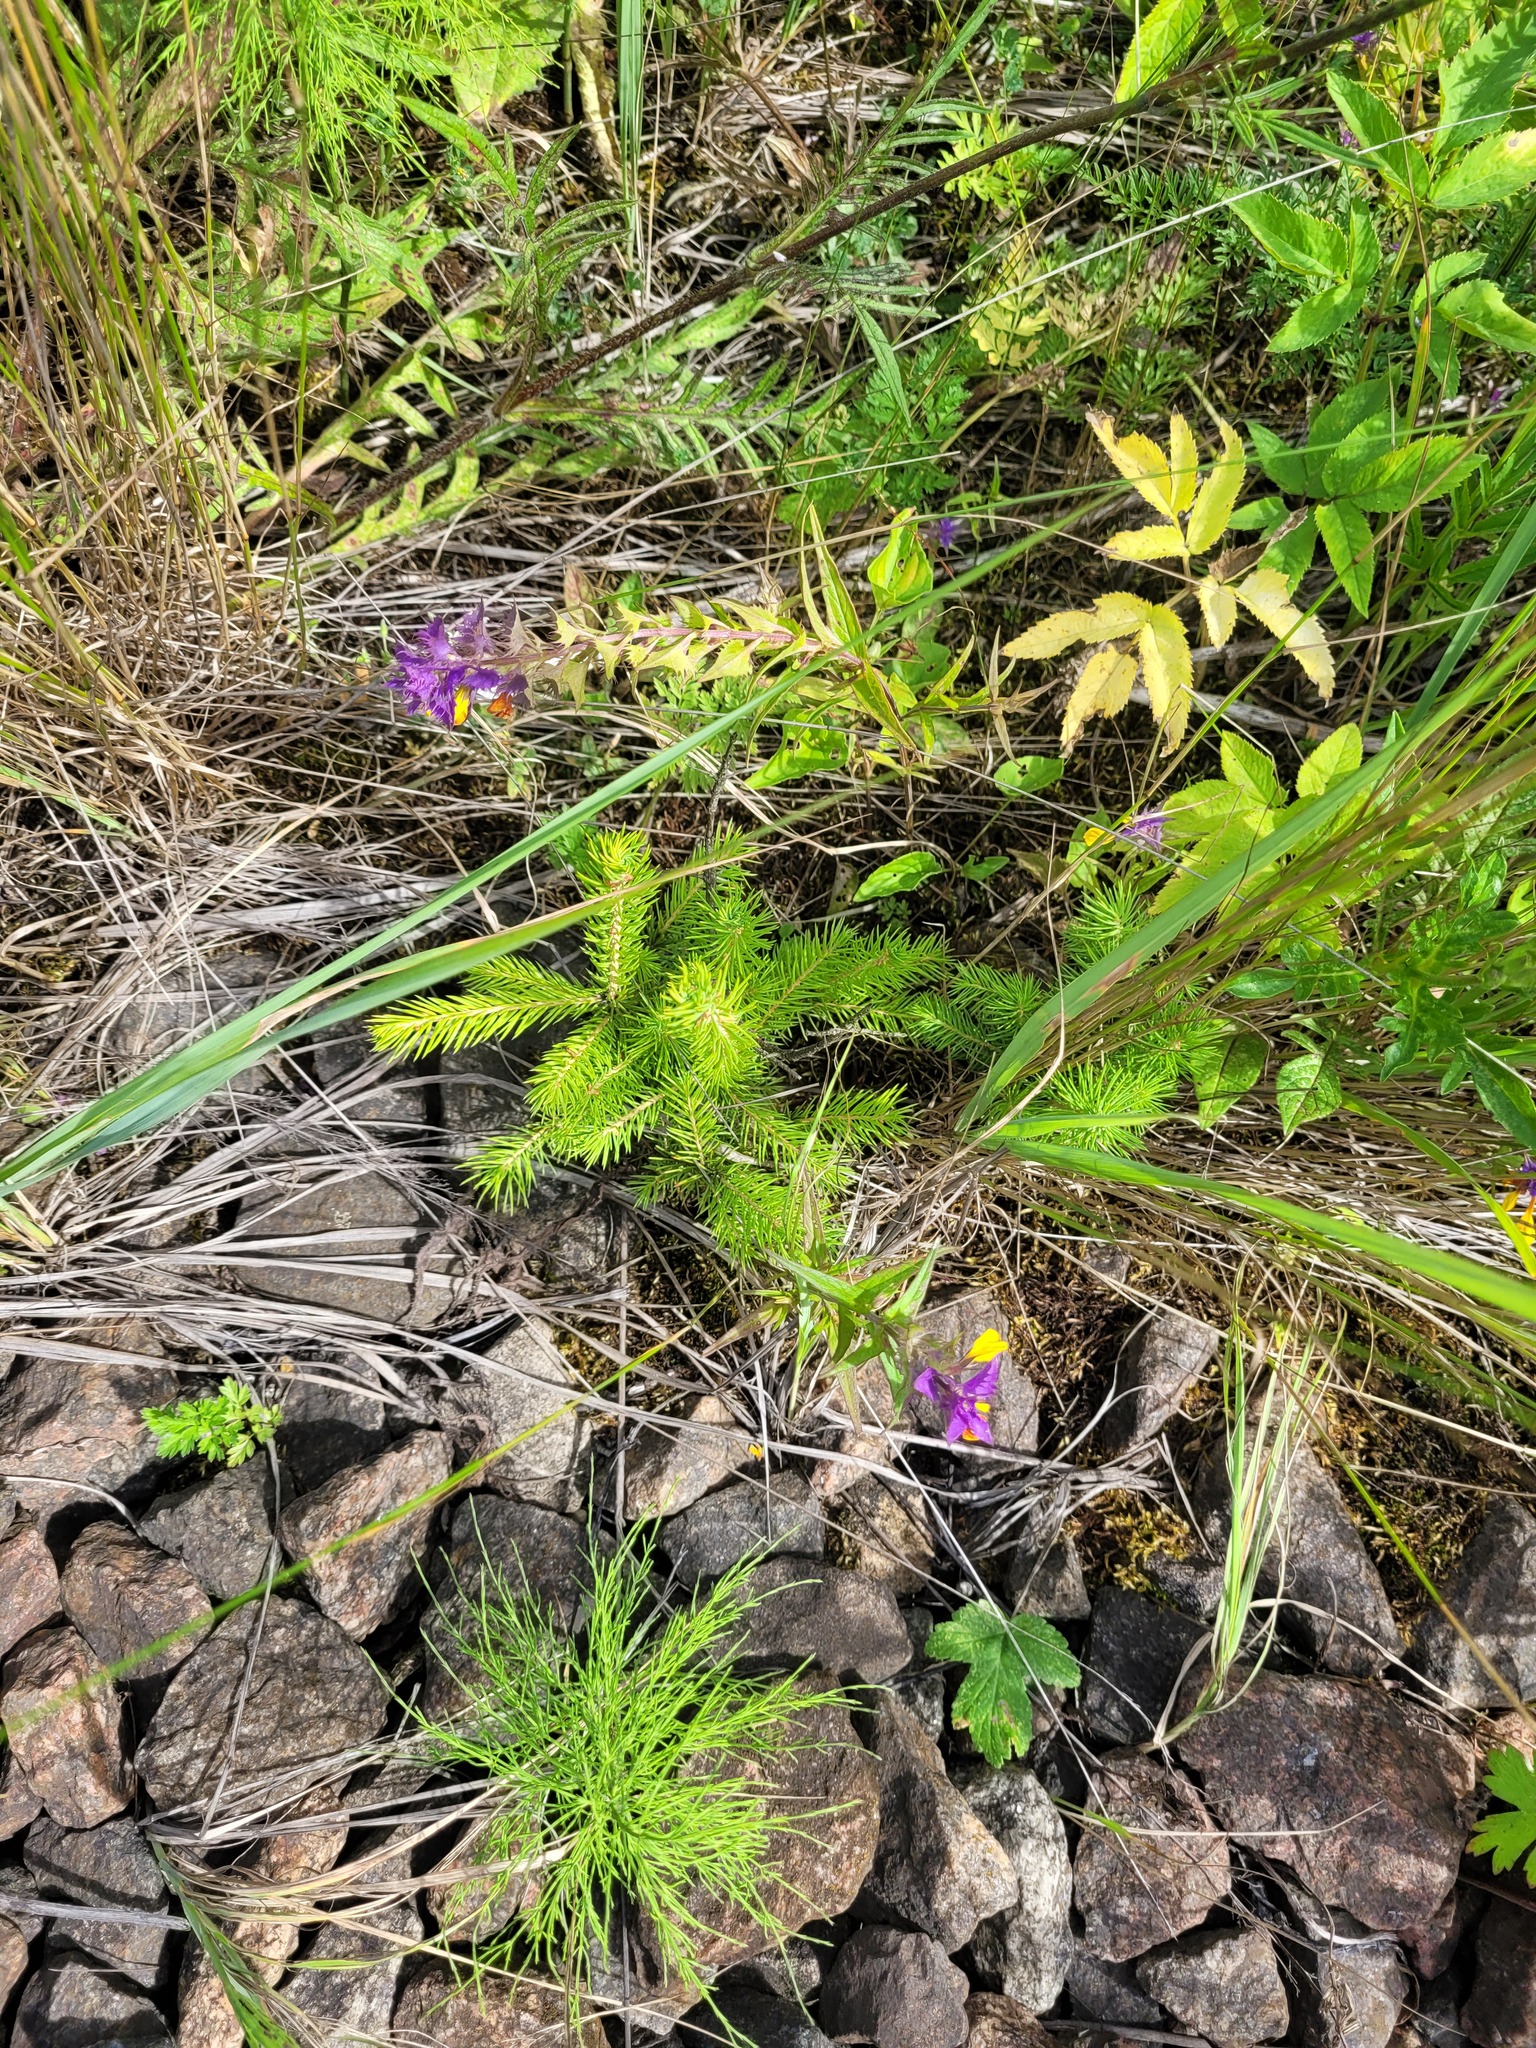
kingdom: Plantae
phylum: Tracheophyta
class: Pinopsida
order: Pinales
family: Pinaceae
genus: Picea
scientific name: Picea abies
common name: Norway spruce
